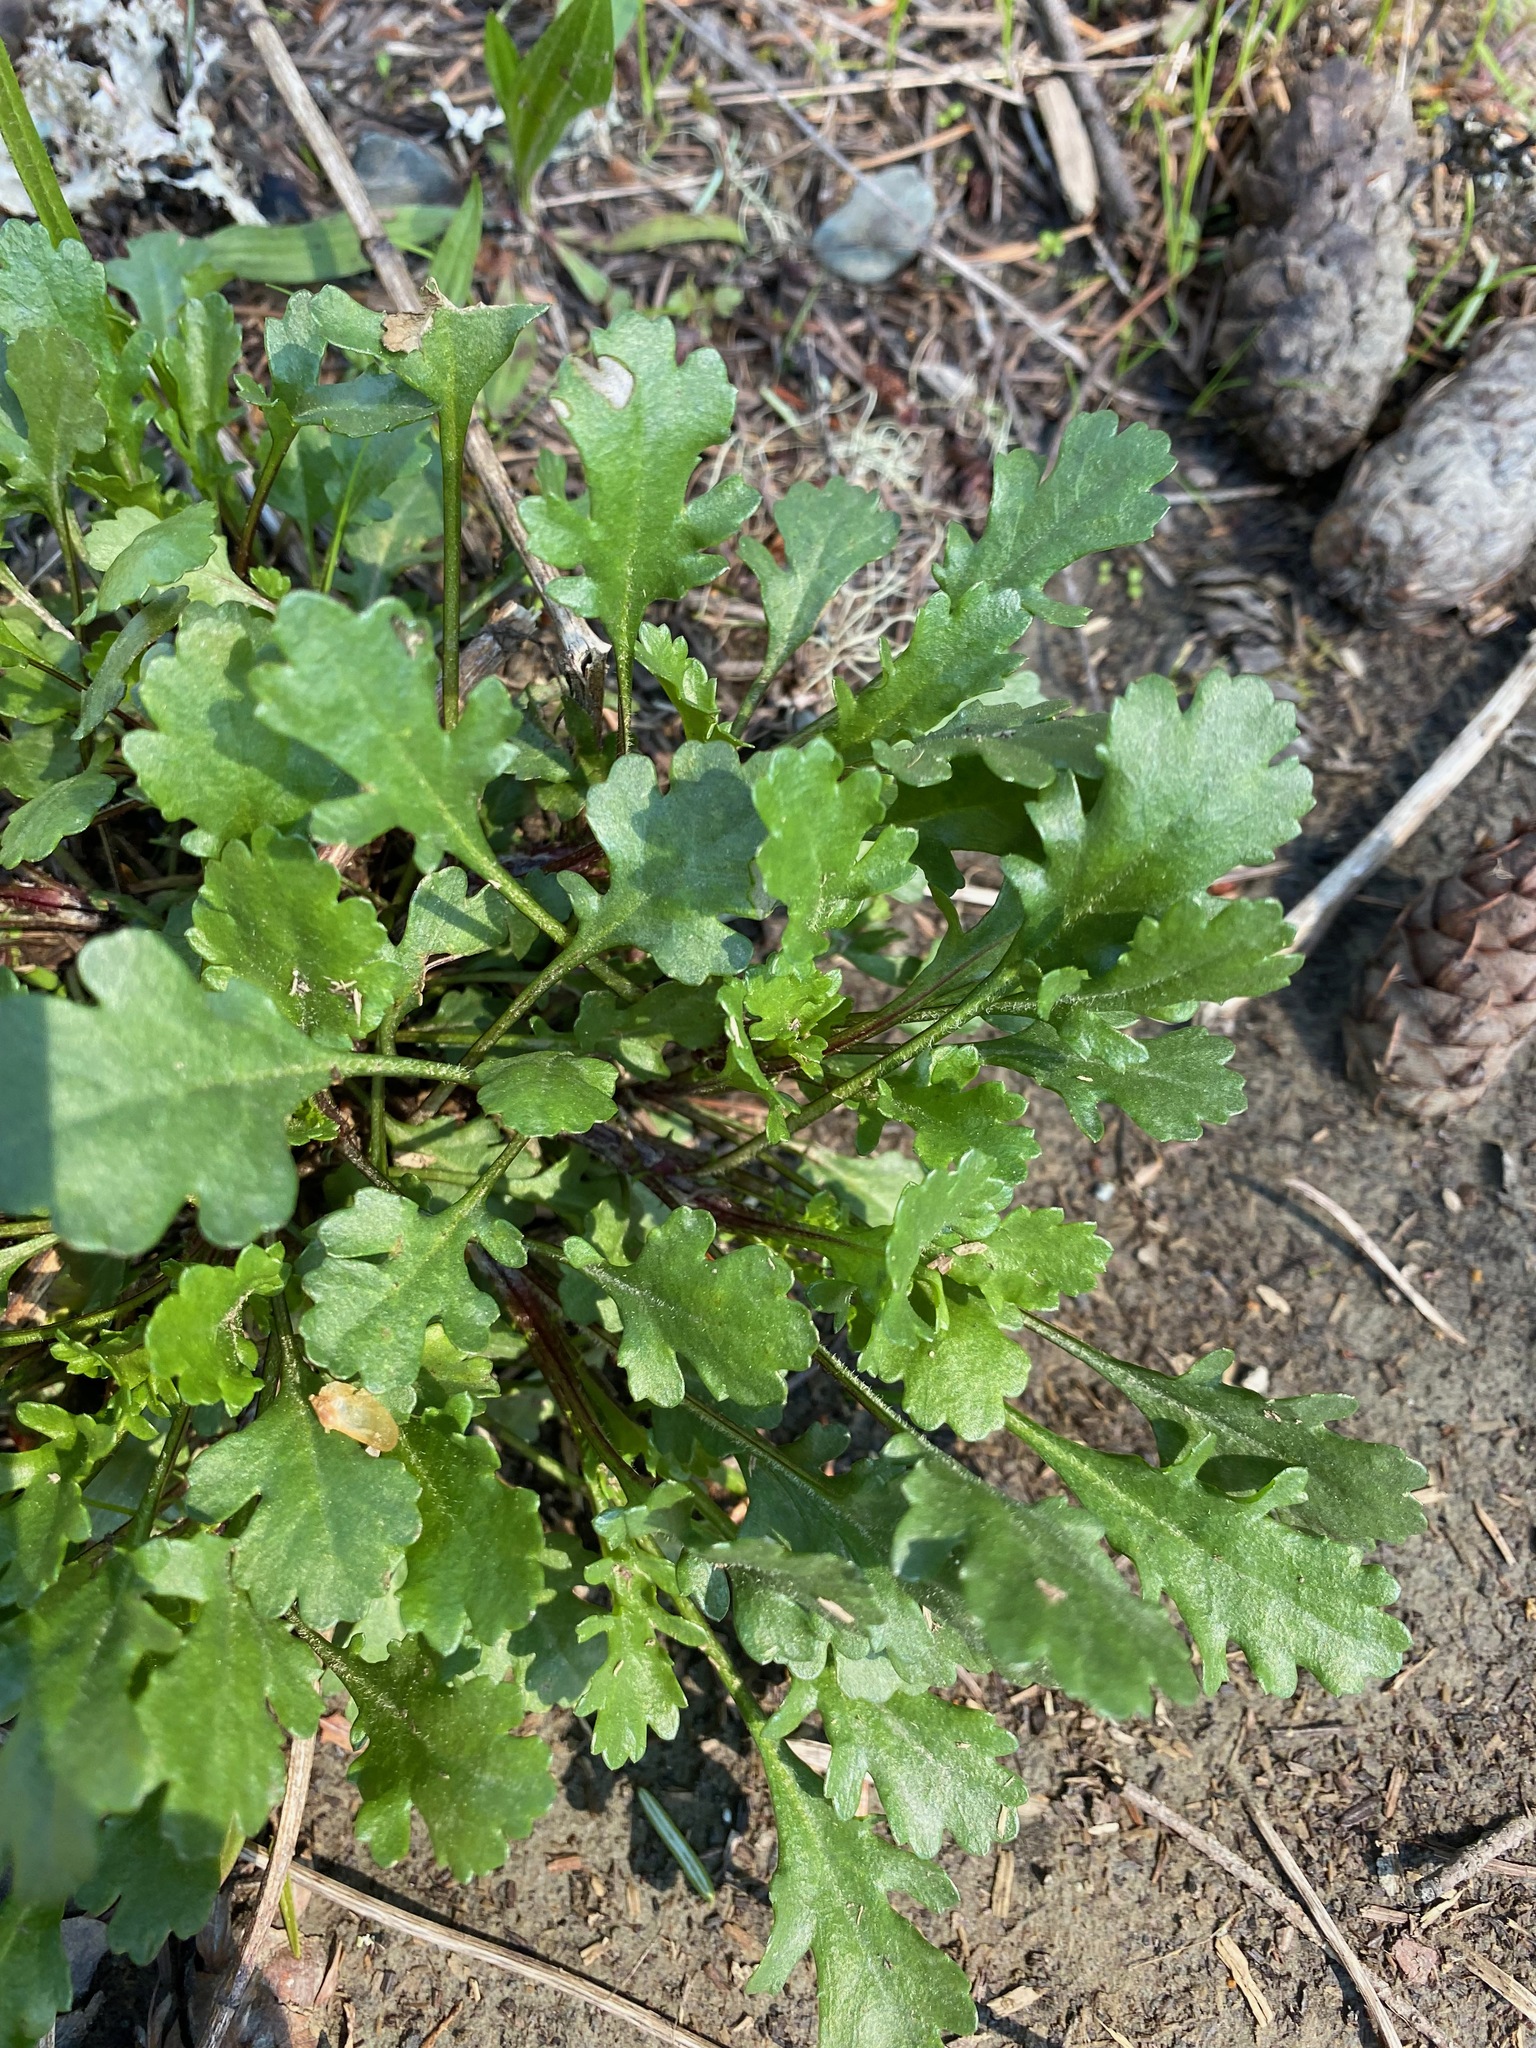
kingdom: Plantae
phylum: Tracheophyta
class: Magnoliopsida
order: Asterales
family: Asteraceae
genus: Leucanthemum
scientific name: Leucanthemum vulgare
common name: Oxeye daisy
